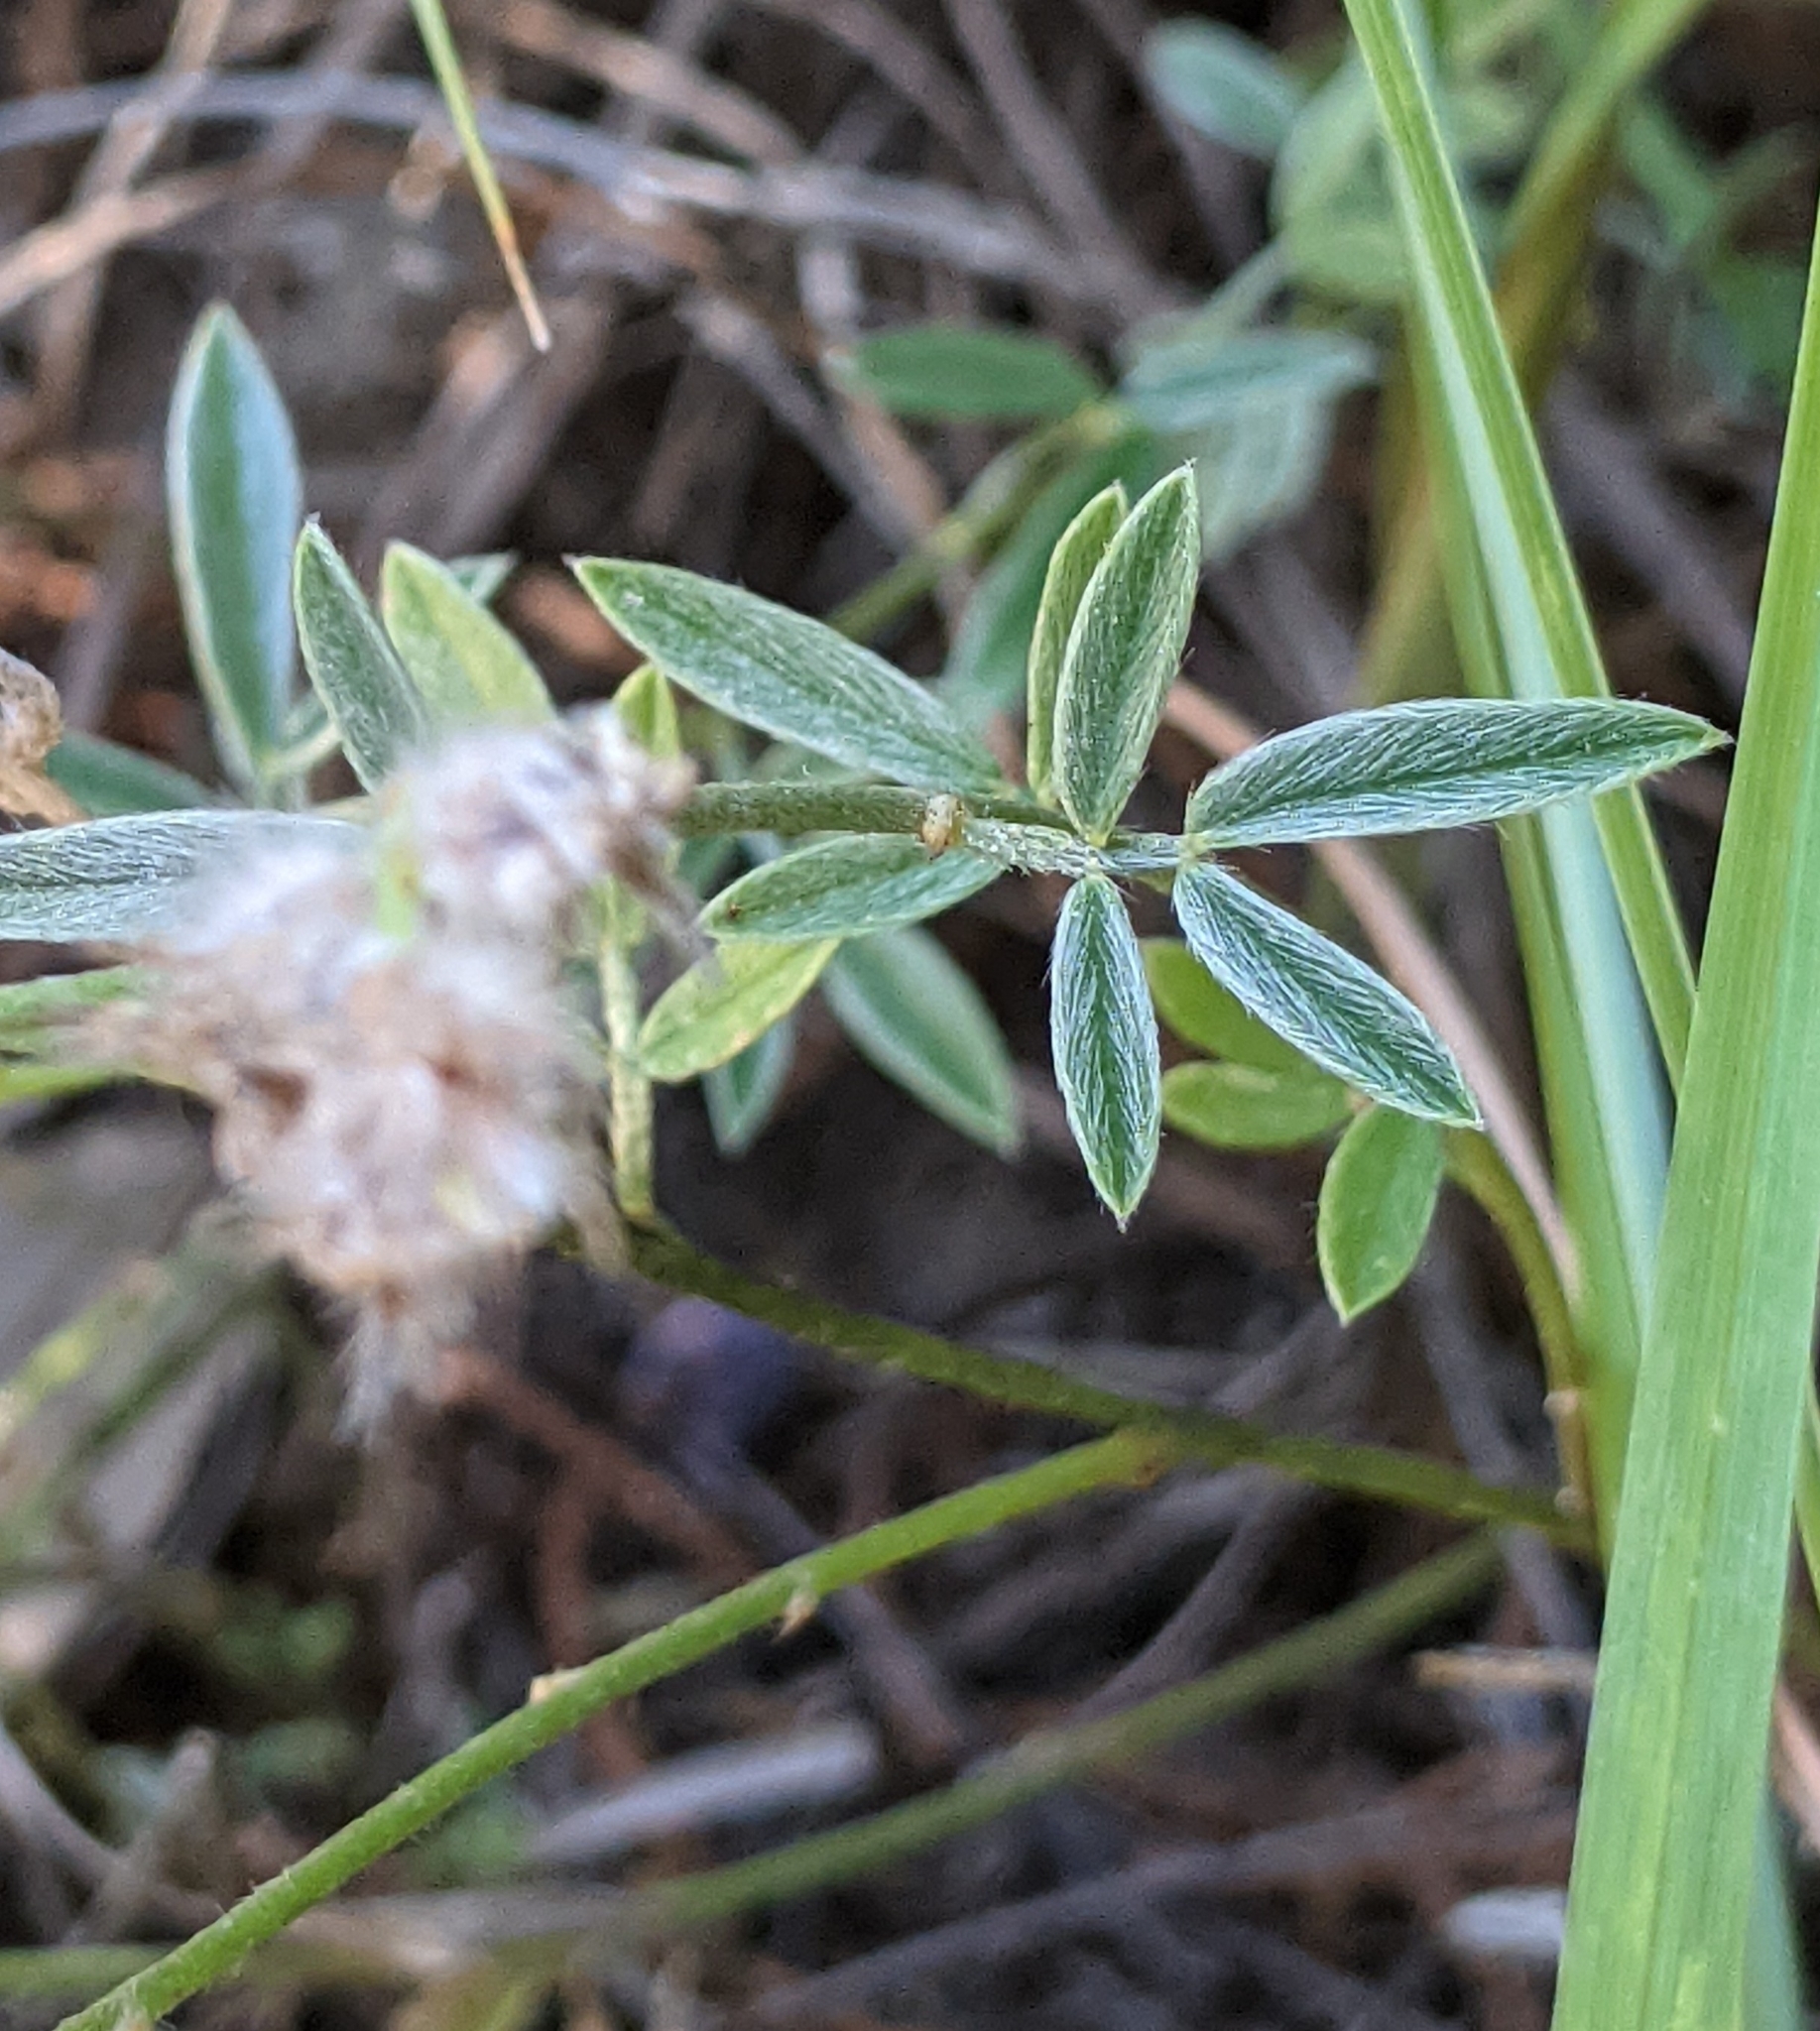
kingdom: Plantae
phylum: Tracheophyta
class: Magnoliopsida
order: Fabales
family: Fabaceae
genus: Dalea
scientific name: Dalea aurea
